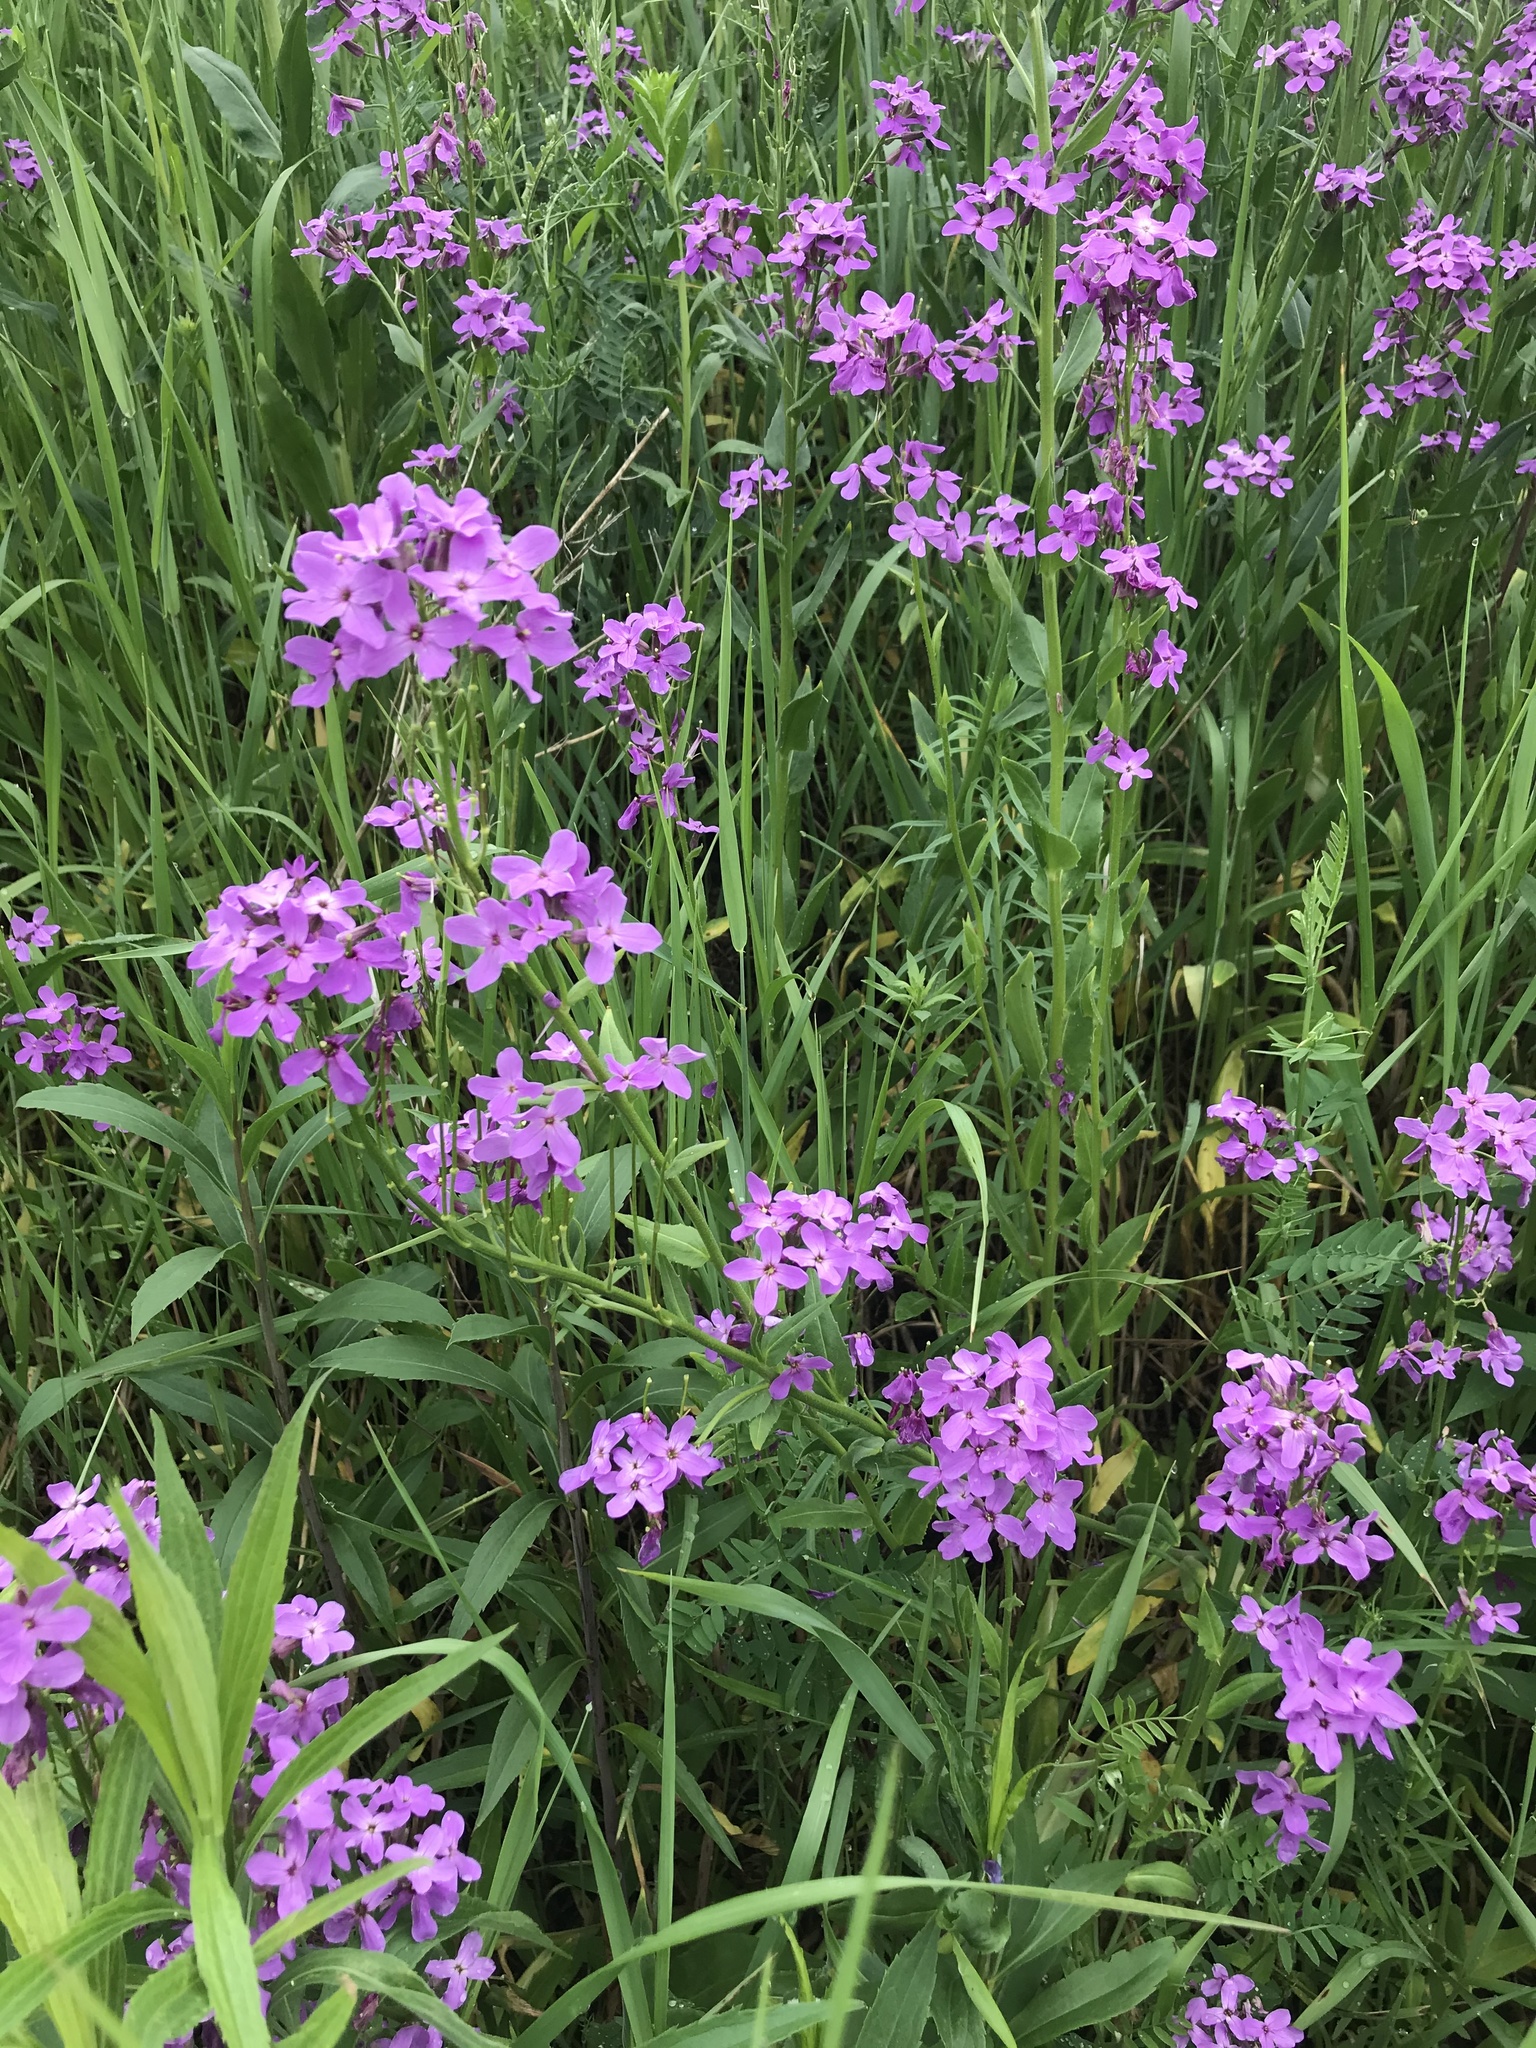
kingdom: Plantae
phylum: Tracheophyta
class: Magnoliopsida
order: Brassicales
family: Brassicaceae
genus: Hesperis
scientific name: Hesperis matronalis
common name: Dame's-violet
